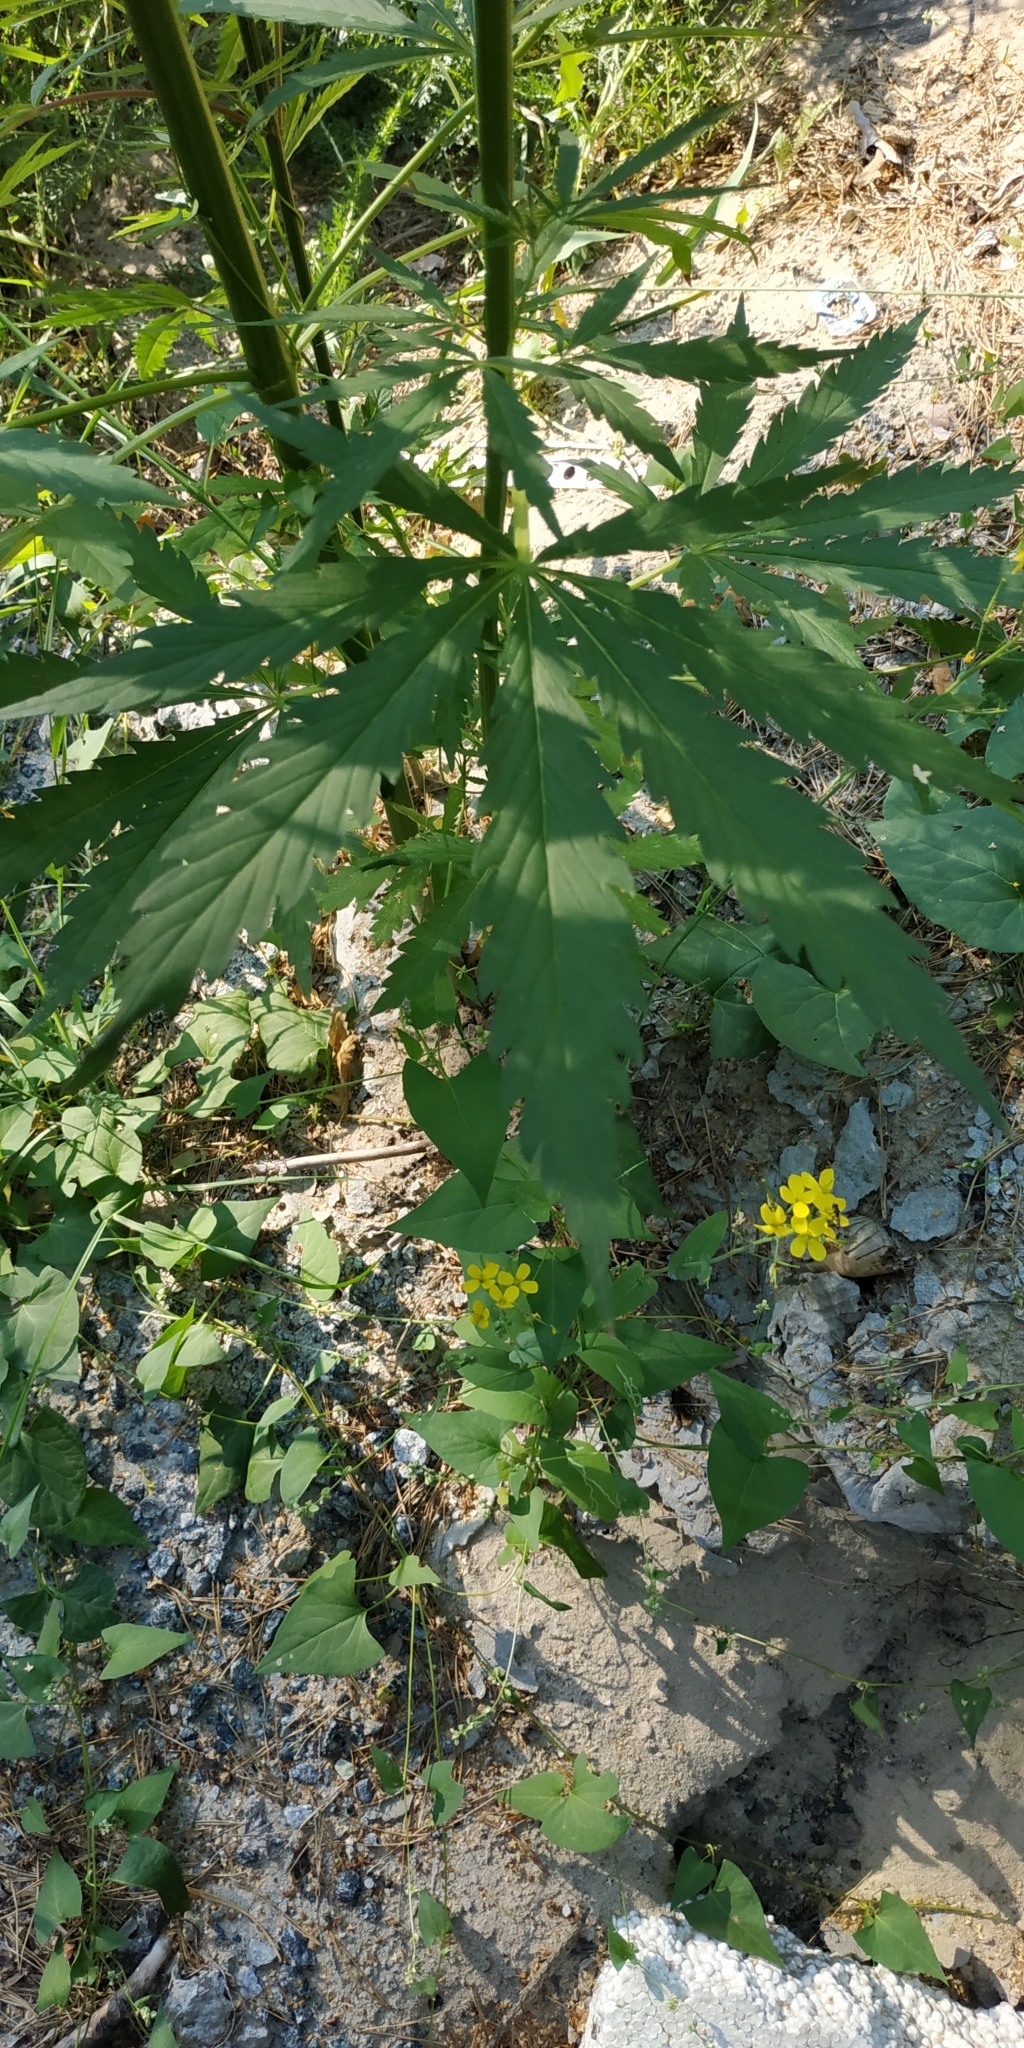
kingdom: Plantae
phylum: Tracheophyta
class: Magnoliopsida
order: Rosales
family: Cannabaceae
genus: Cannabis
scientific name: Cannabis sativa
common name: Hemp
